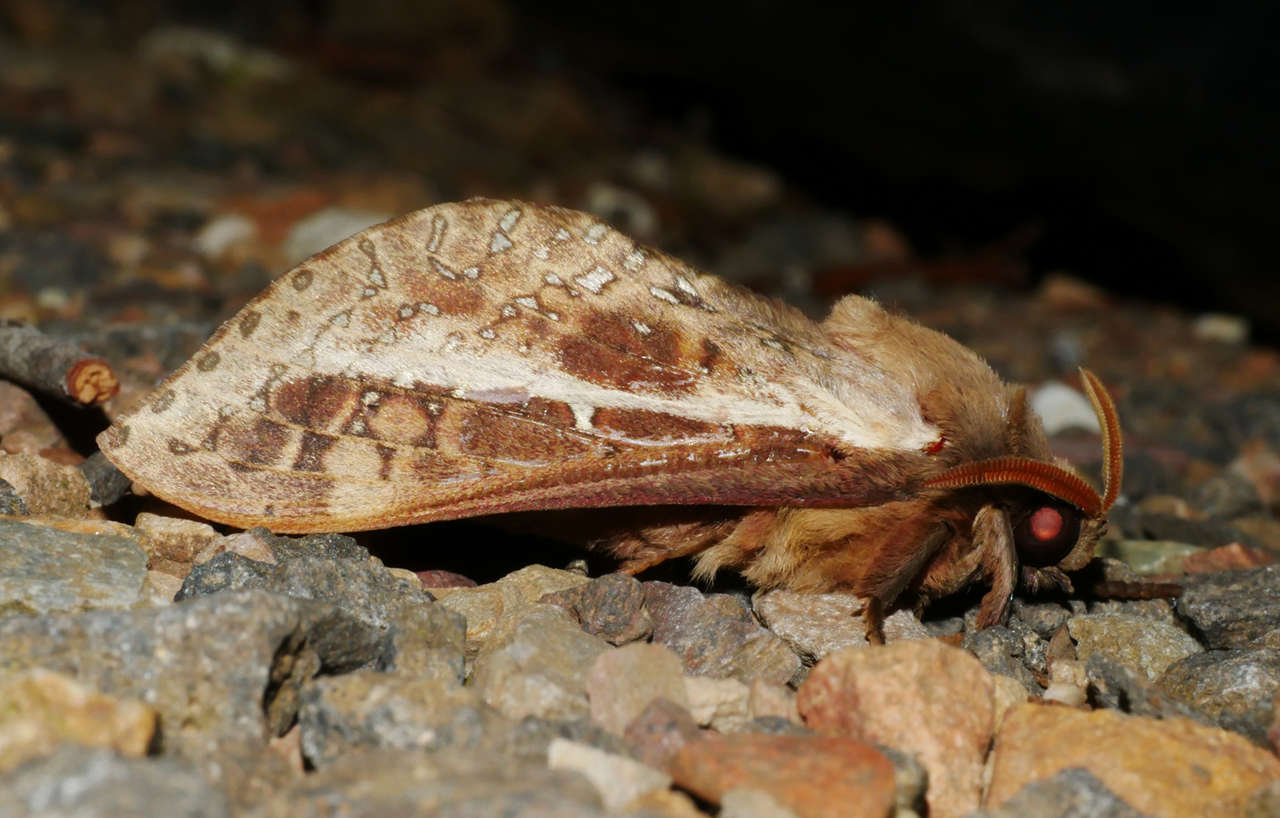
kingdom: Animalia
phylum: Arthropoda
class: Insecta
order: Lepidoptera
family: Hepialidae
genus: Oxycanus
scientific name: Oxycanus australis
